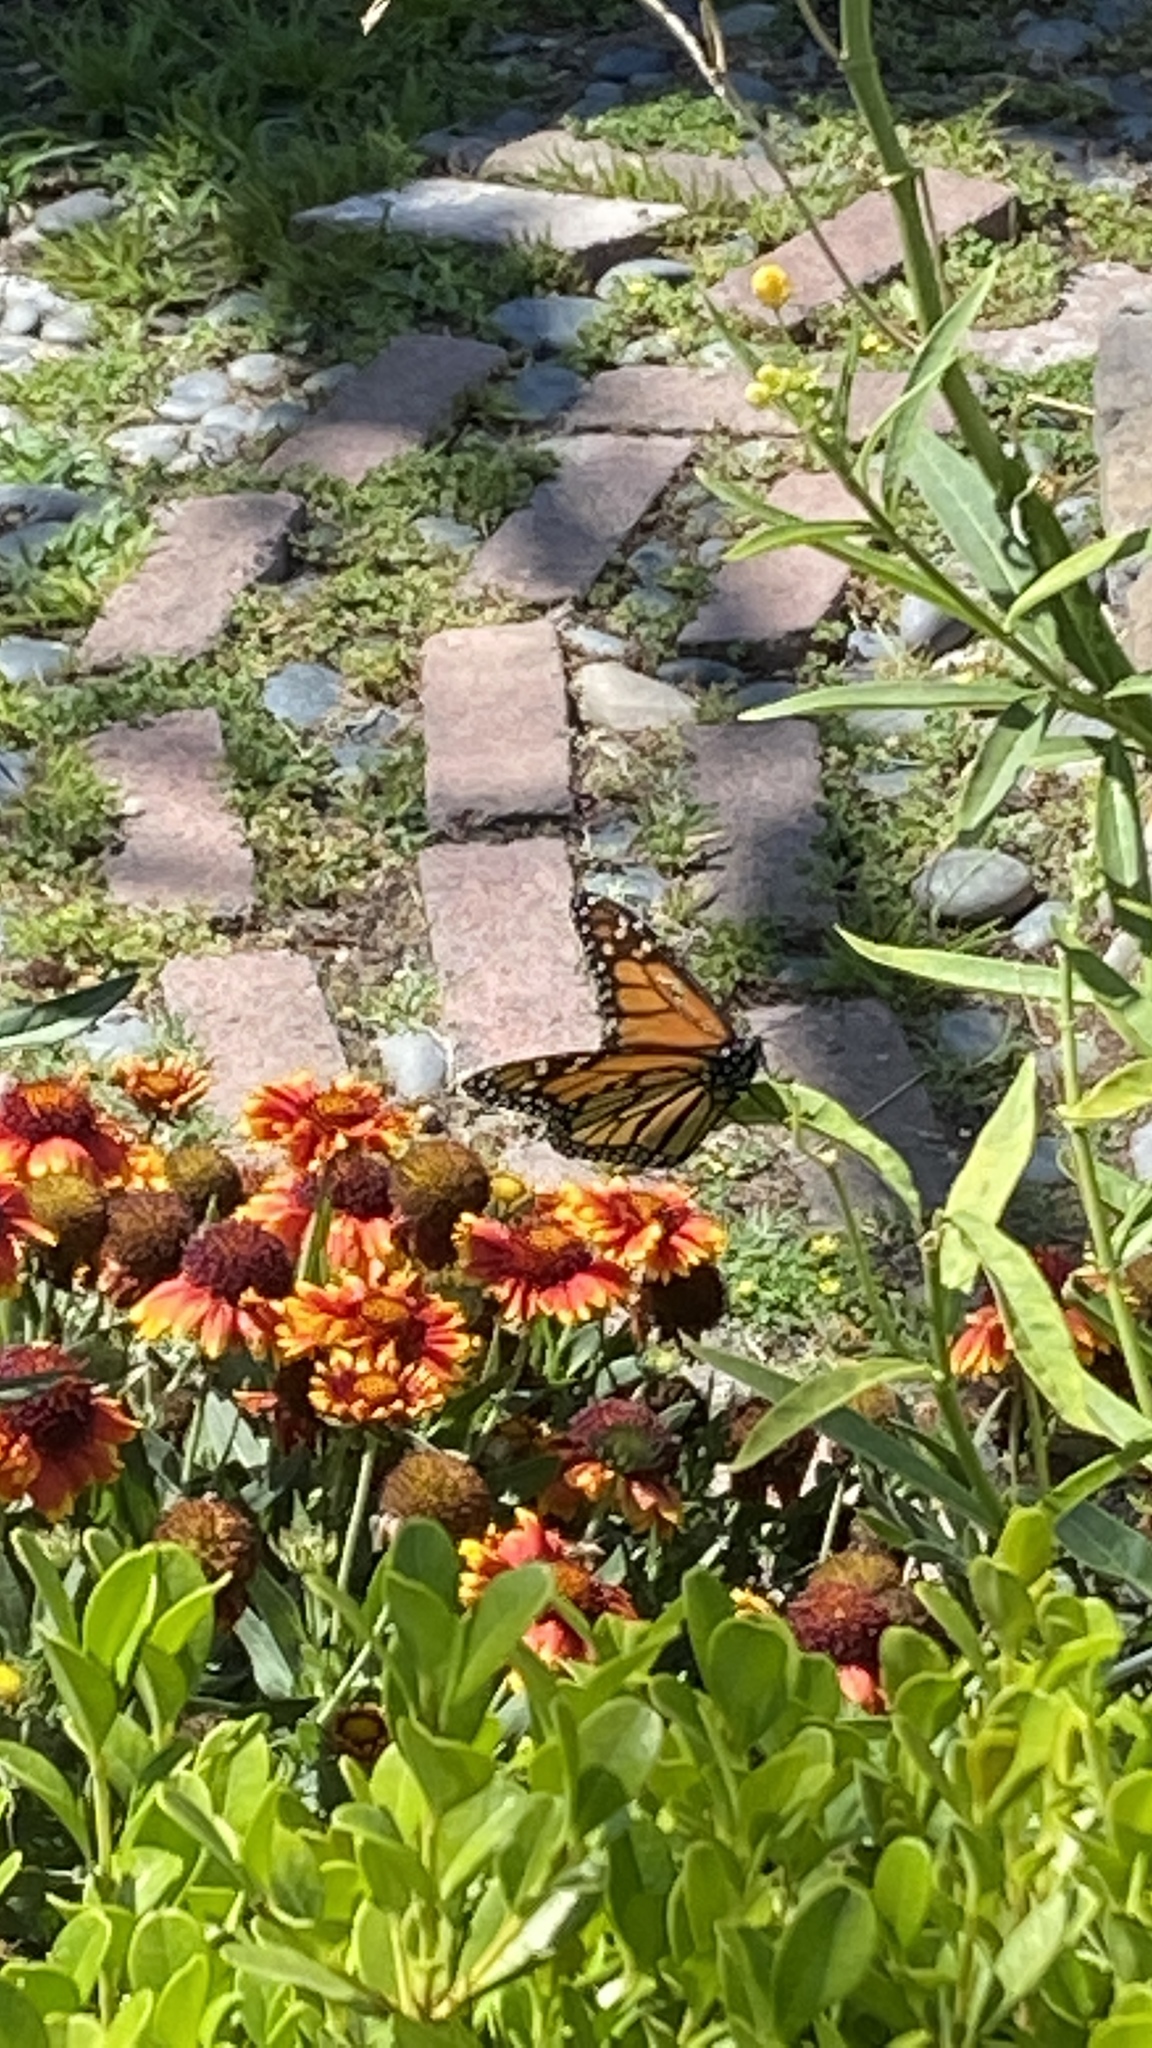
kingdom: Animalia
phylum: Arthropoda
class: Insecta
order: Lepidoptera
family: Nymphalidae
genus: Danaus
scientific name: Danaus plexippus
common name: Monarch
